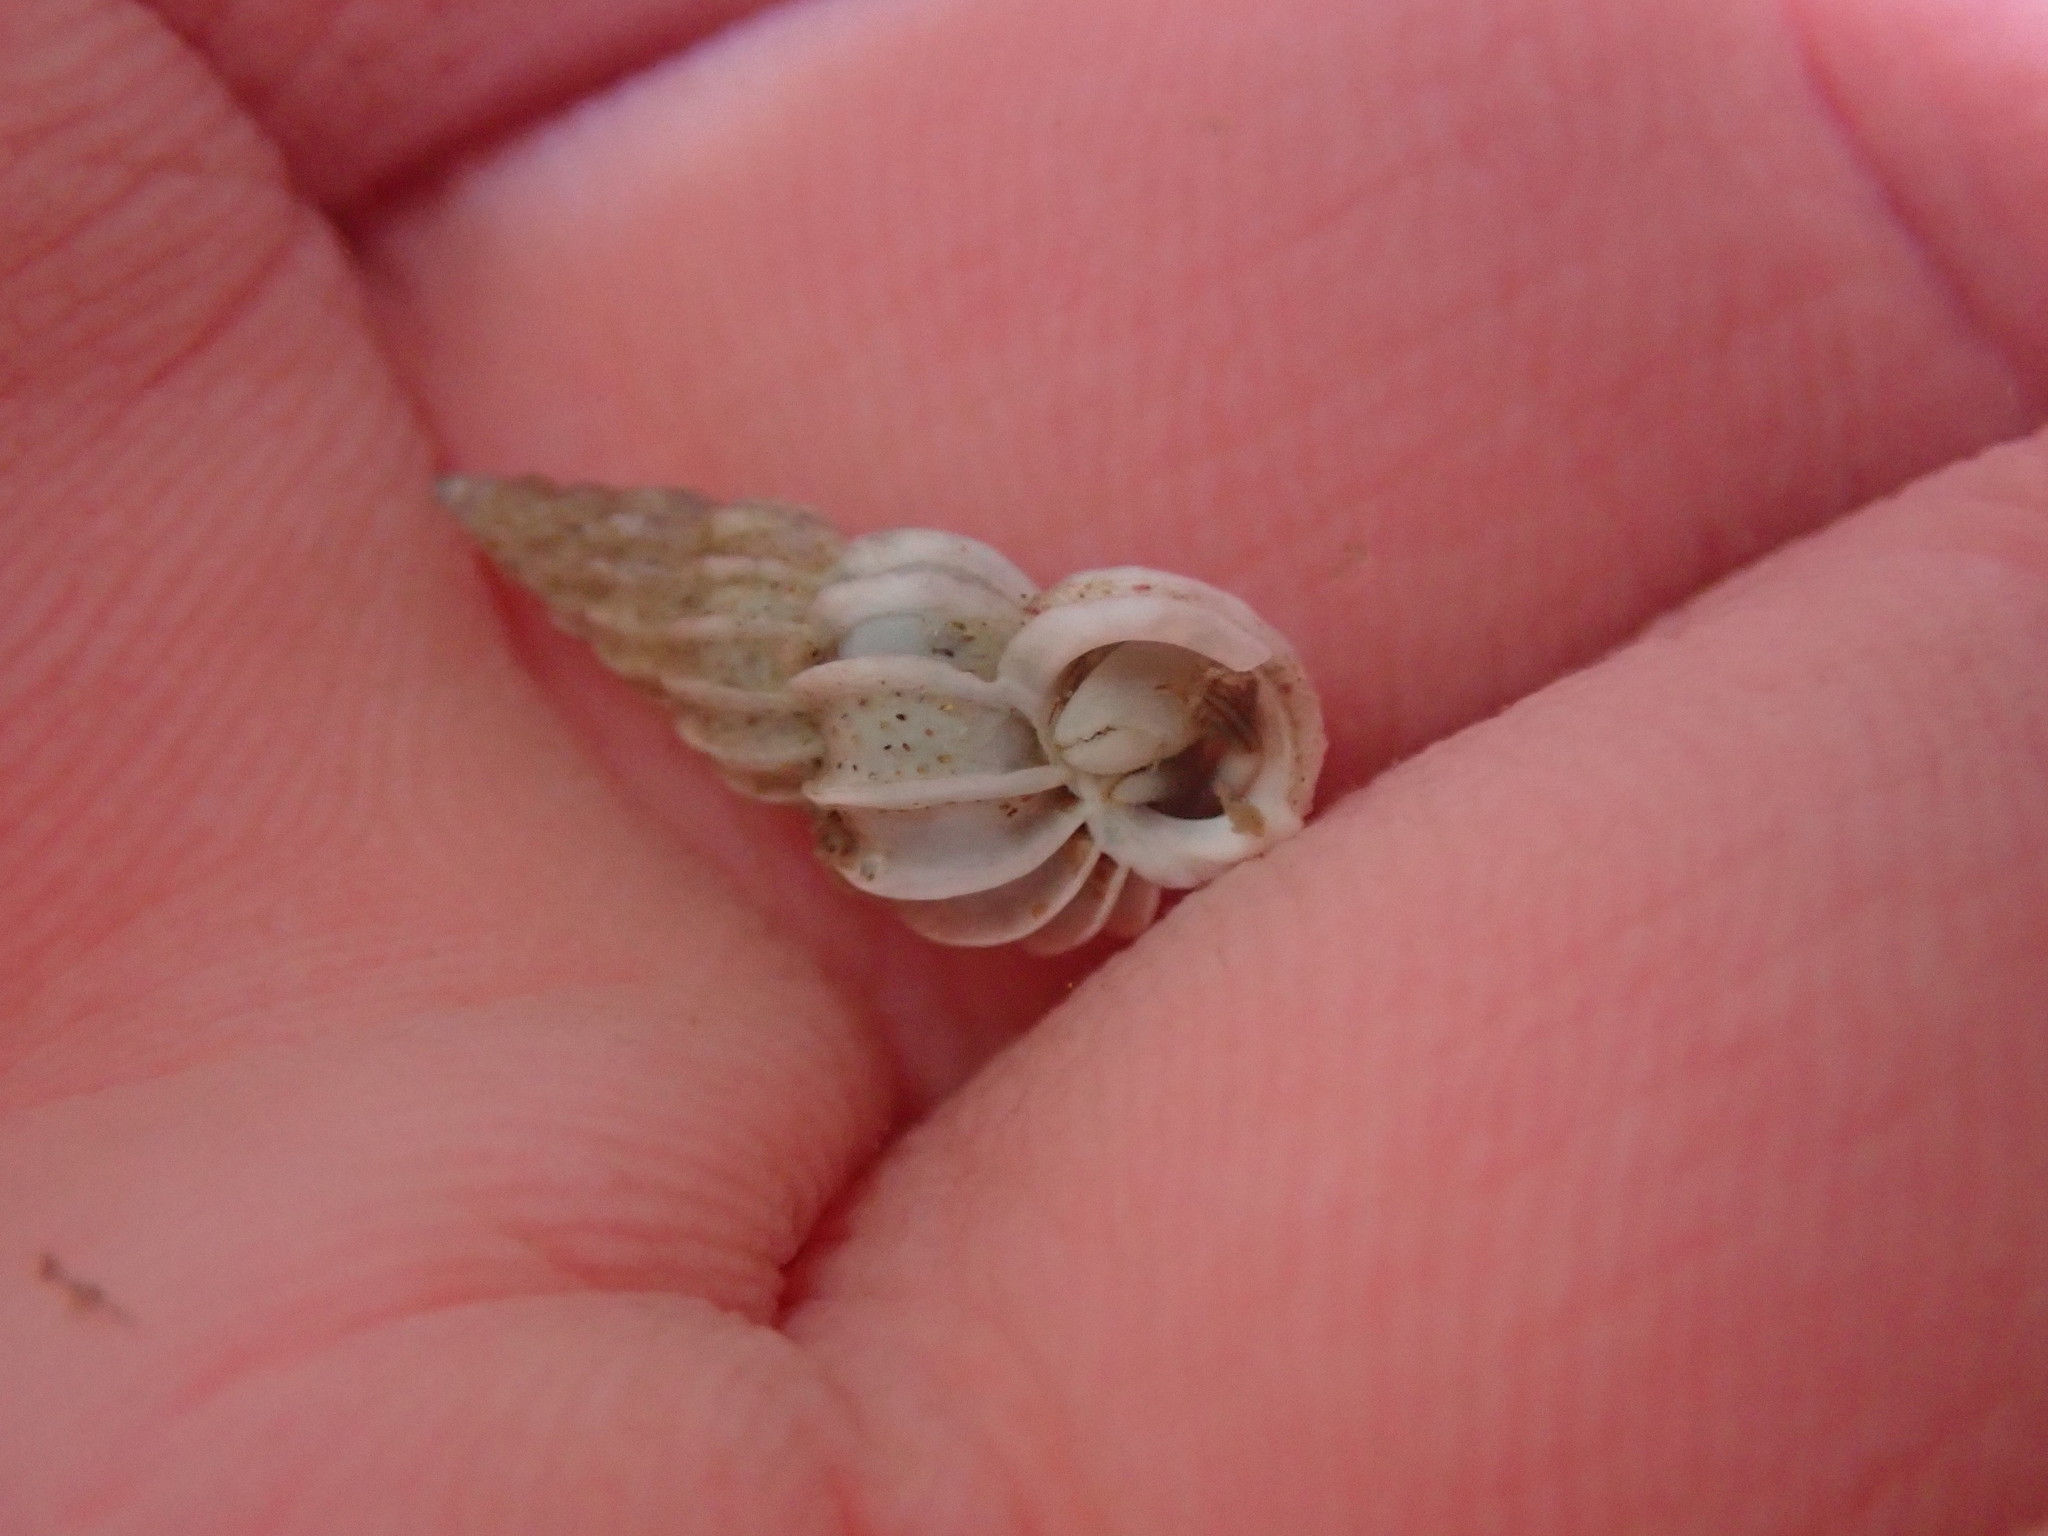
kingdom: Animalia
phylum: Mollusca
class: Gastropoda
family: Epitoniidae
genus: Epitonium
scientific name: Epitonium tinctum
